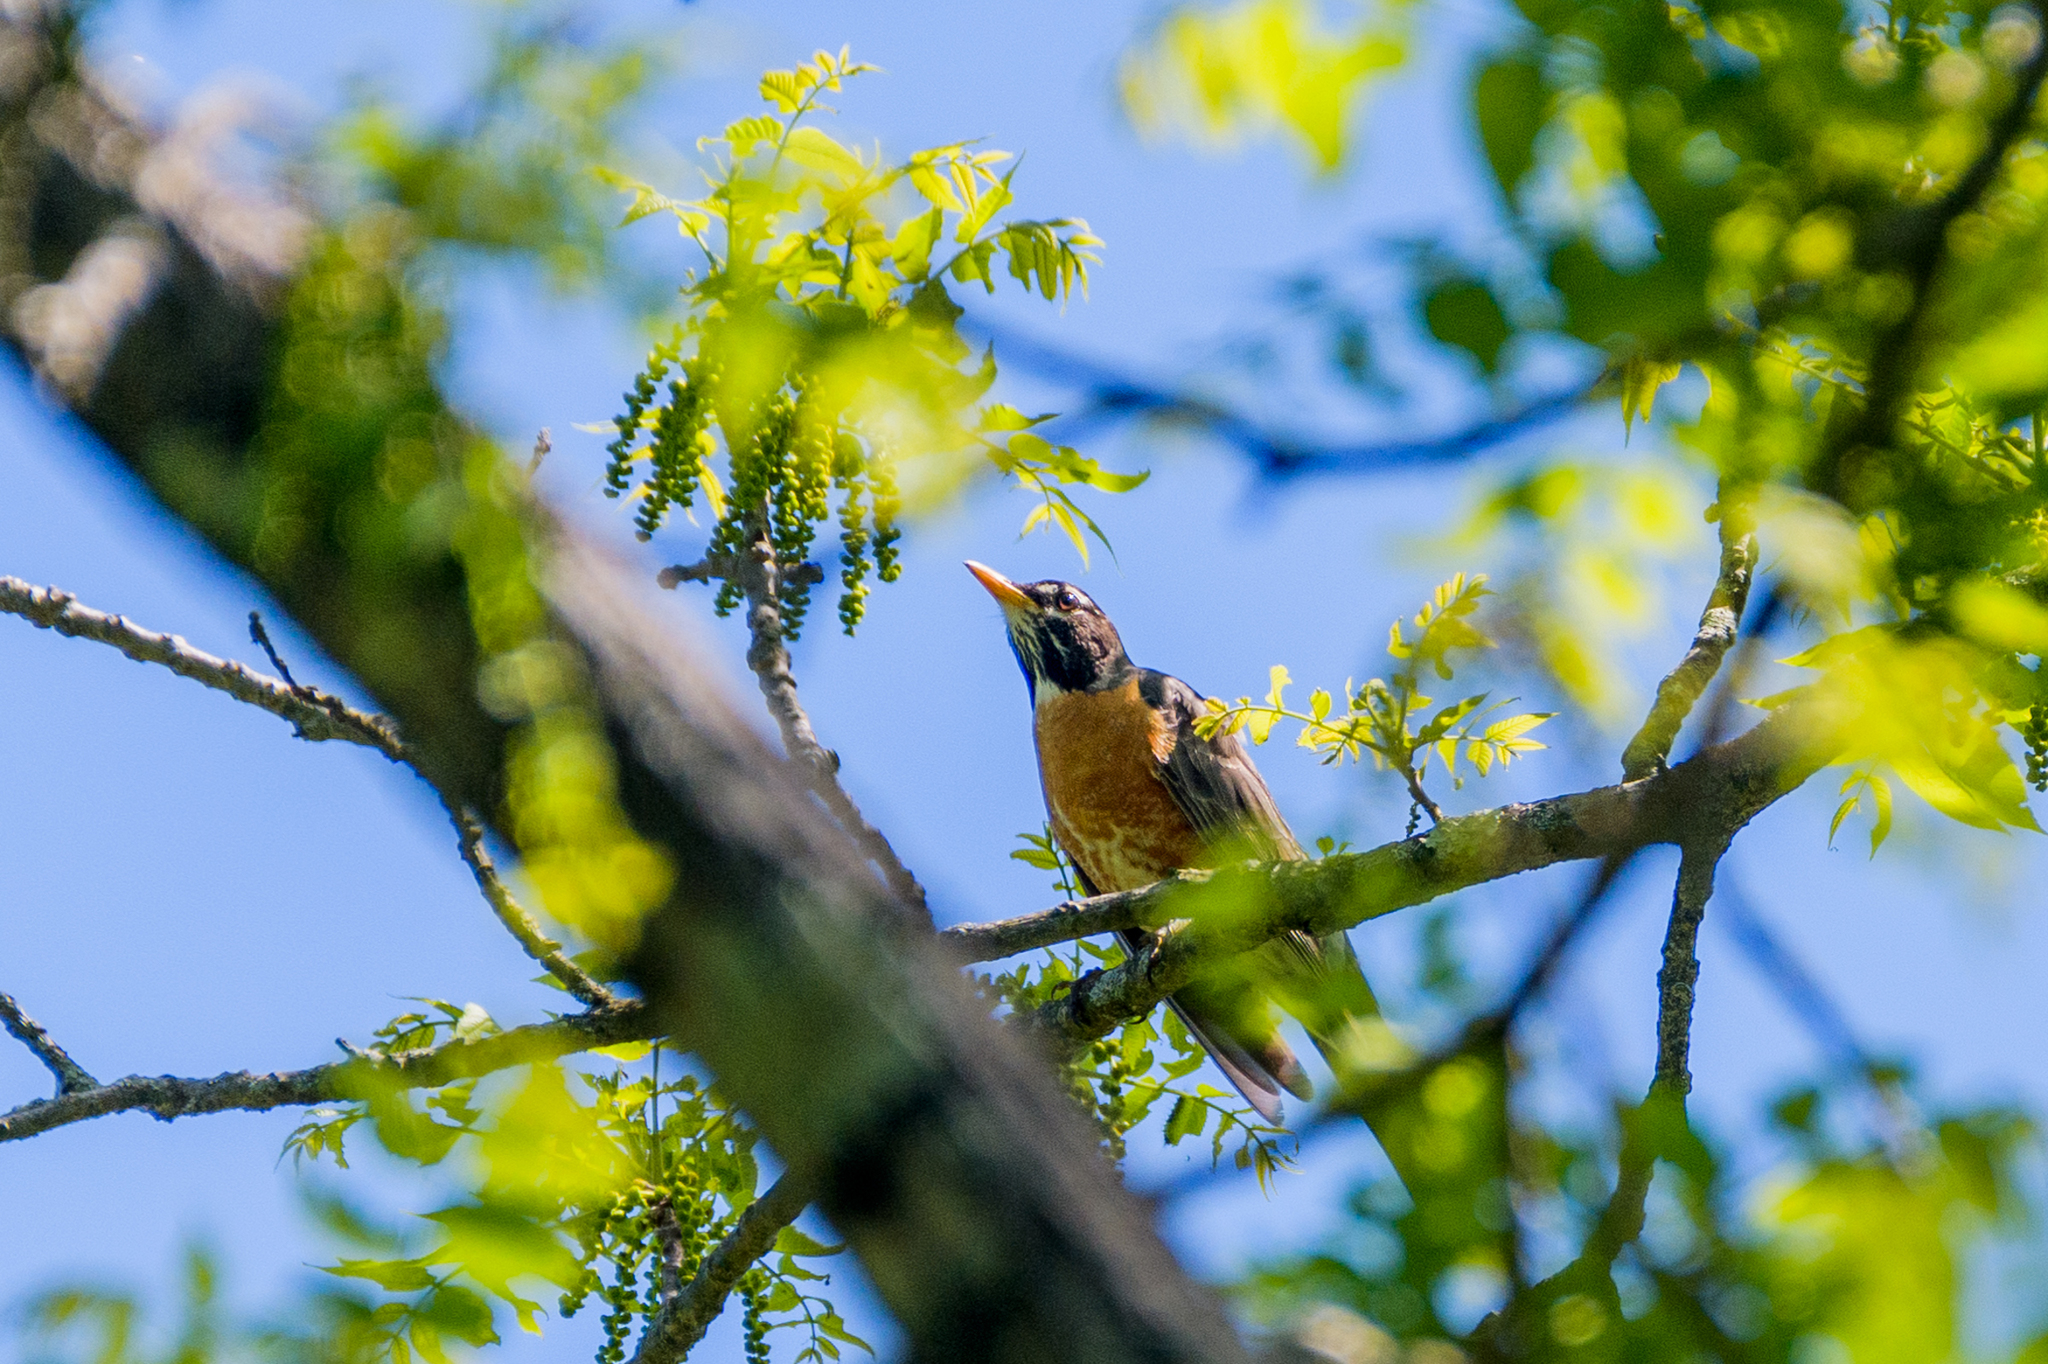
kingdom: Animalia
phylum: Chordata
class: Aves
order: Passeriformes
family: Turdidae
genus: Turdus
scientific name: Turdus migratorius
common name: American robin
